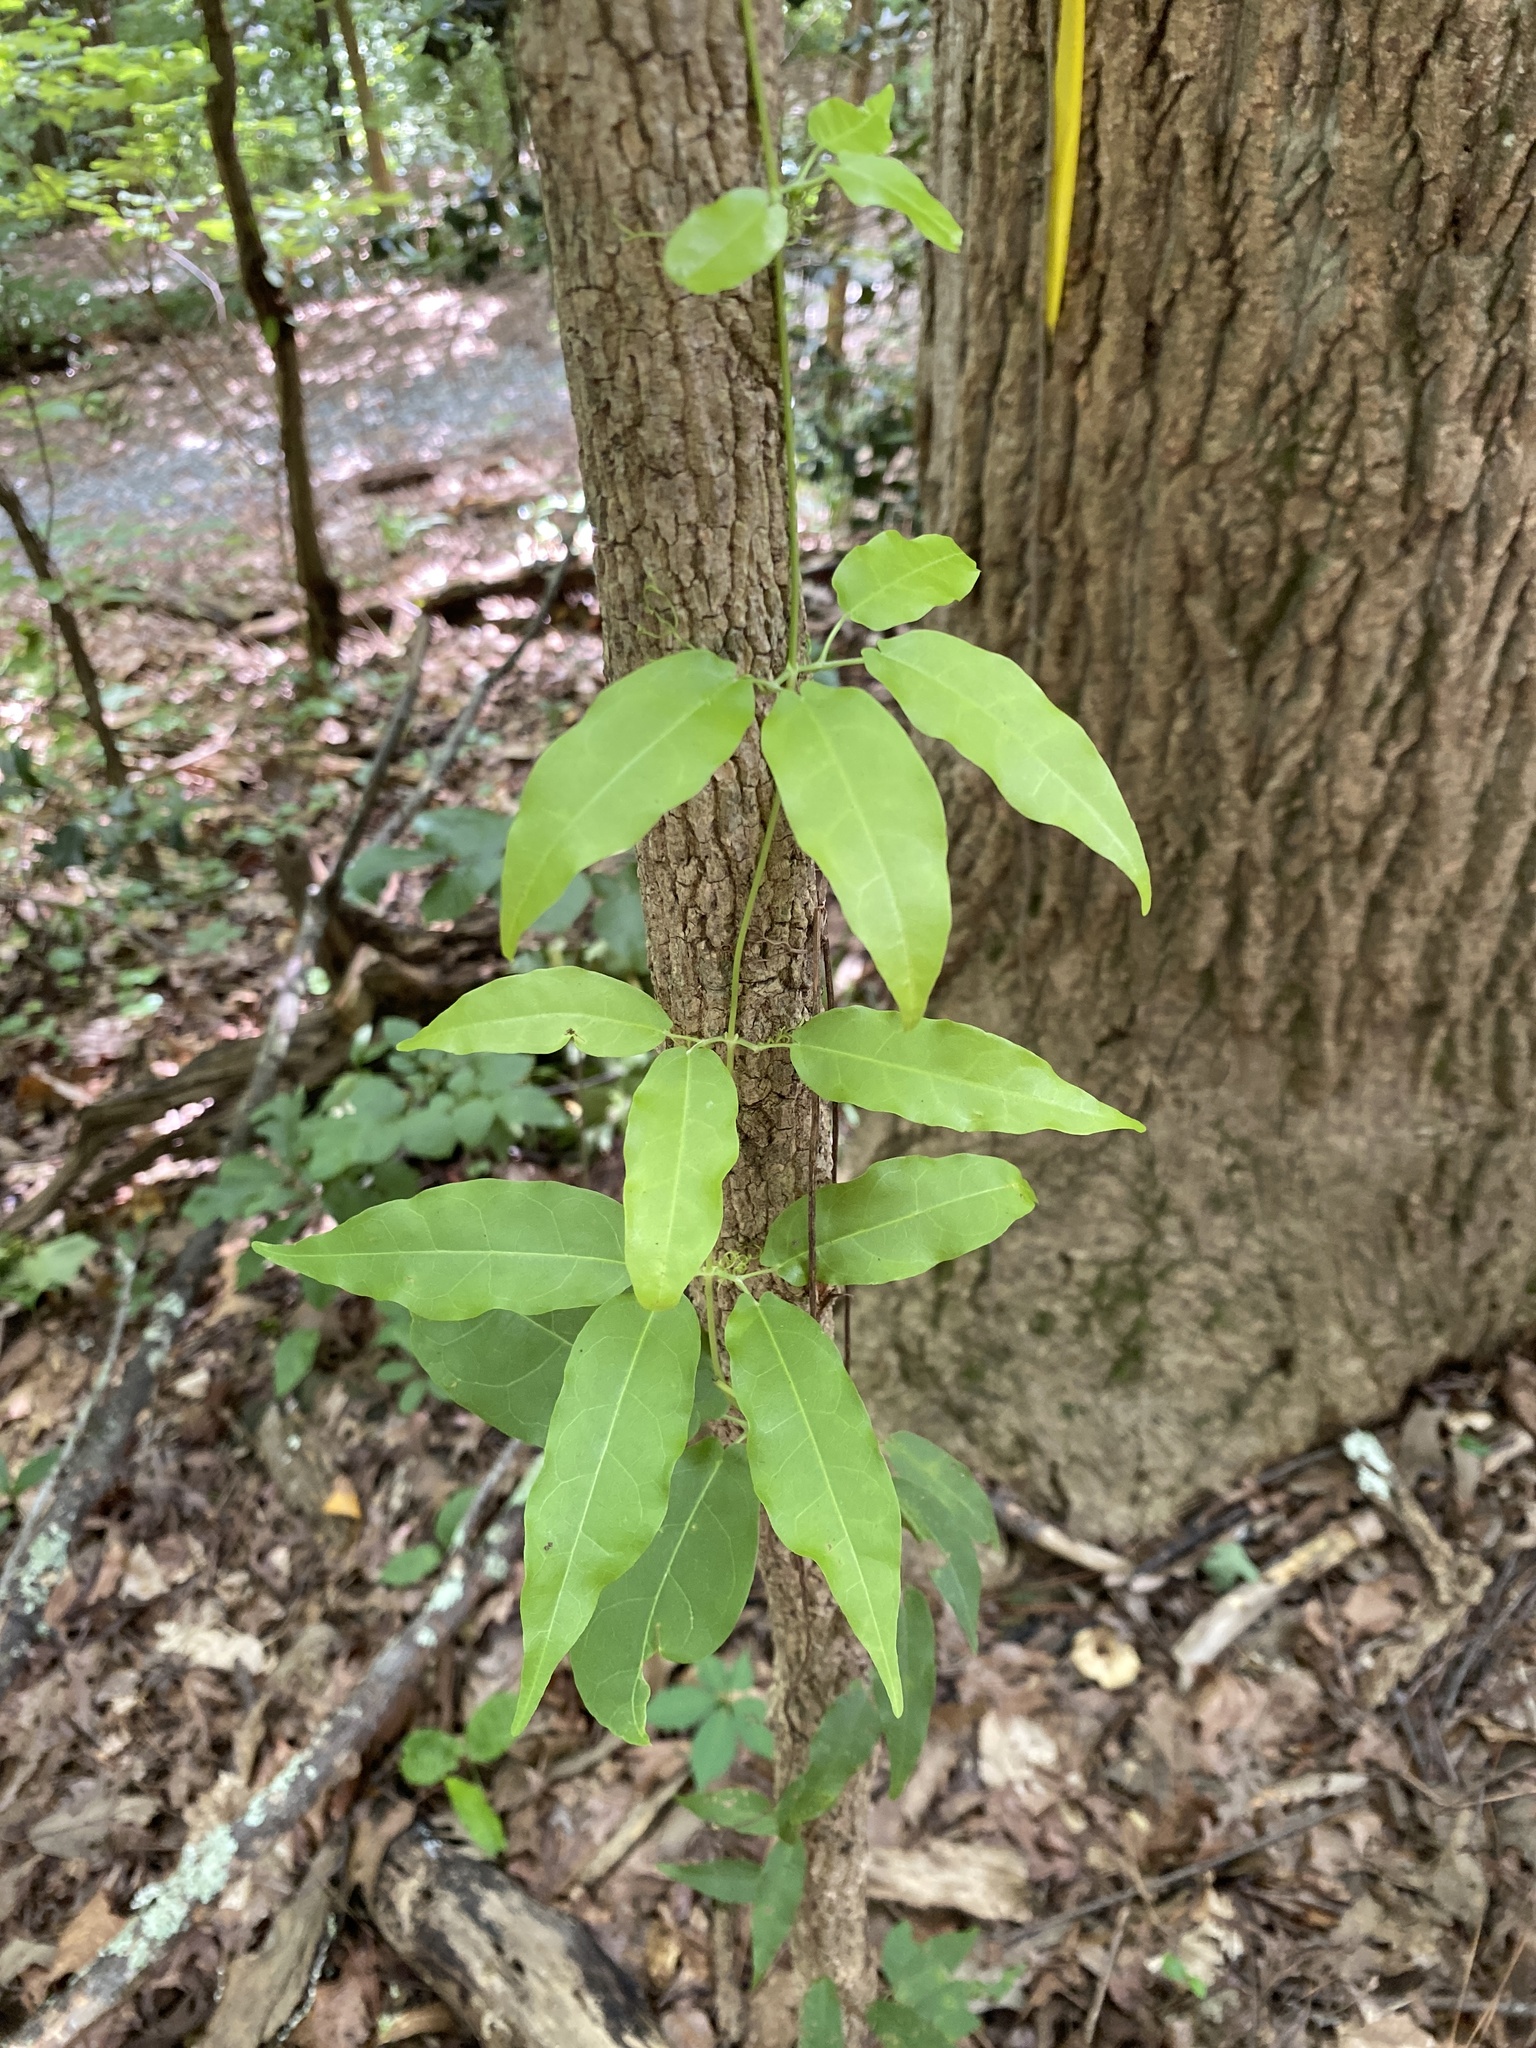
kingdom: Plantae
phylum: Tracheophyta
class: Magnoliopsida
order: Lamiales
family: Bignoniaceae
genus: Bignonia
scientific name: Bignonia capreolata
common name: Crossvine
